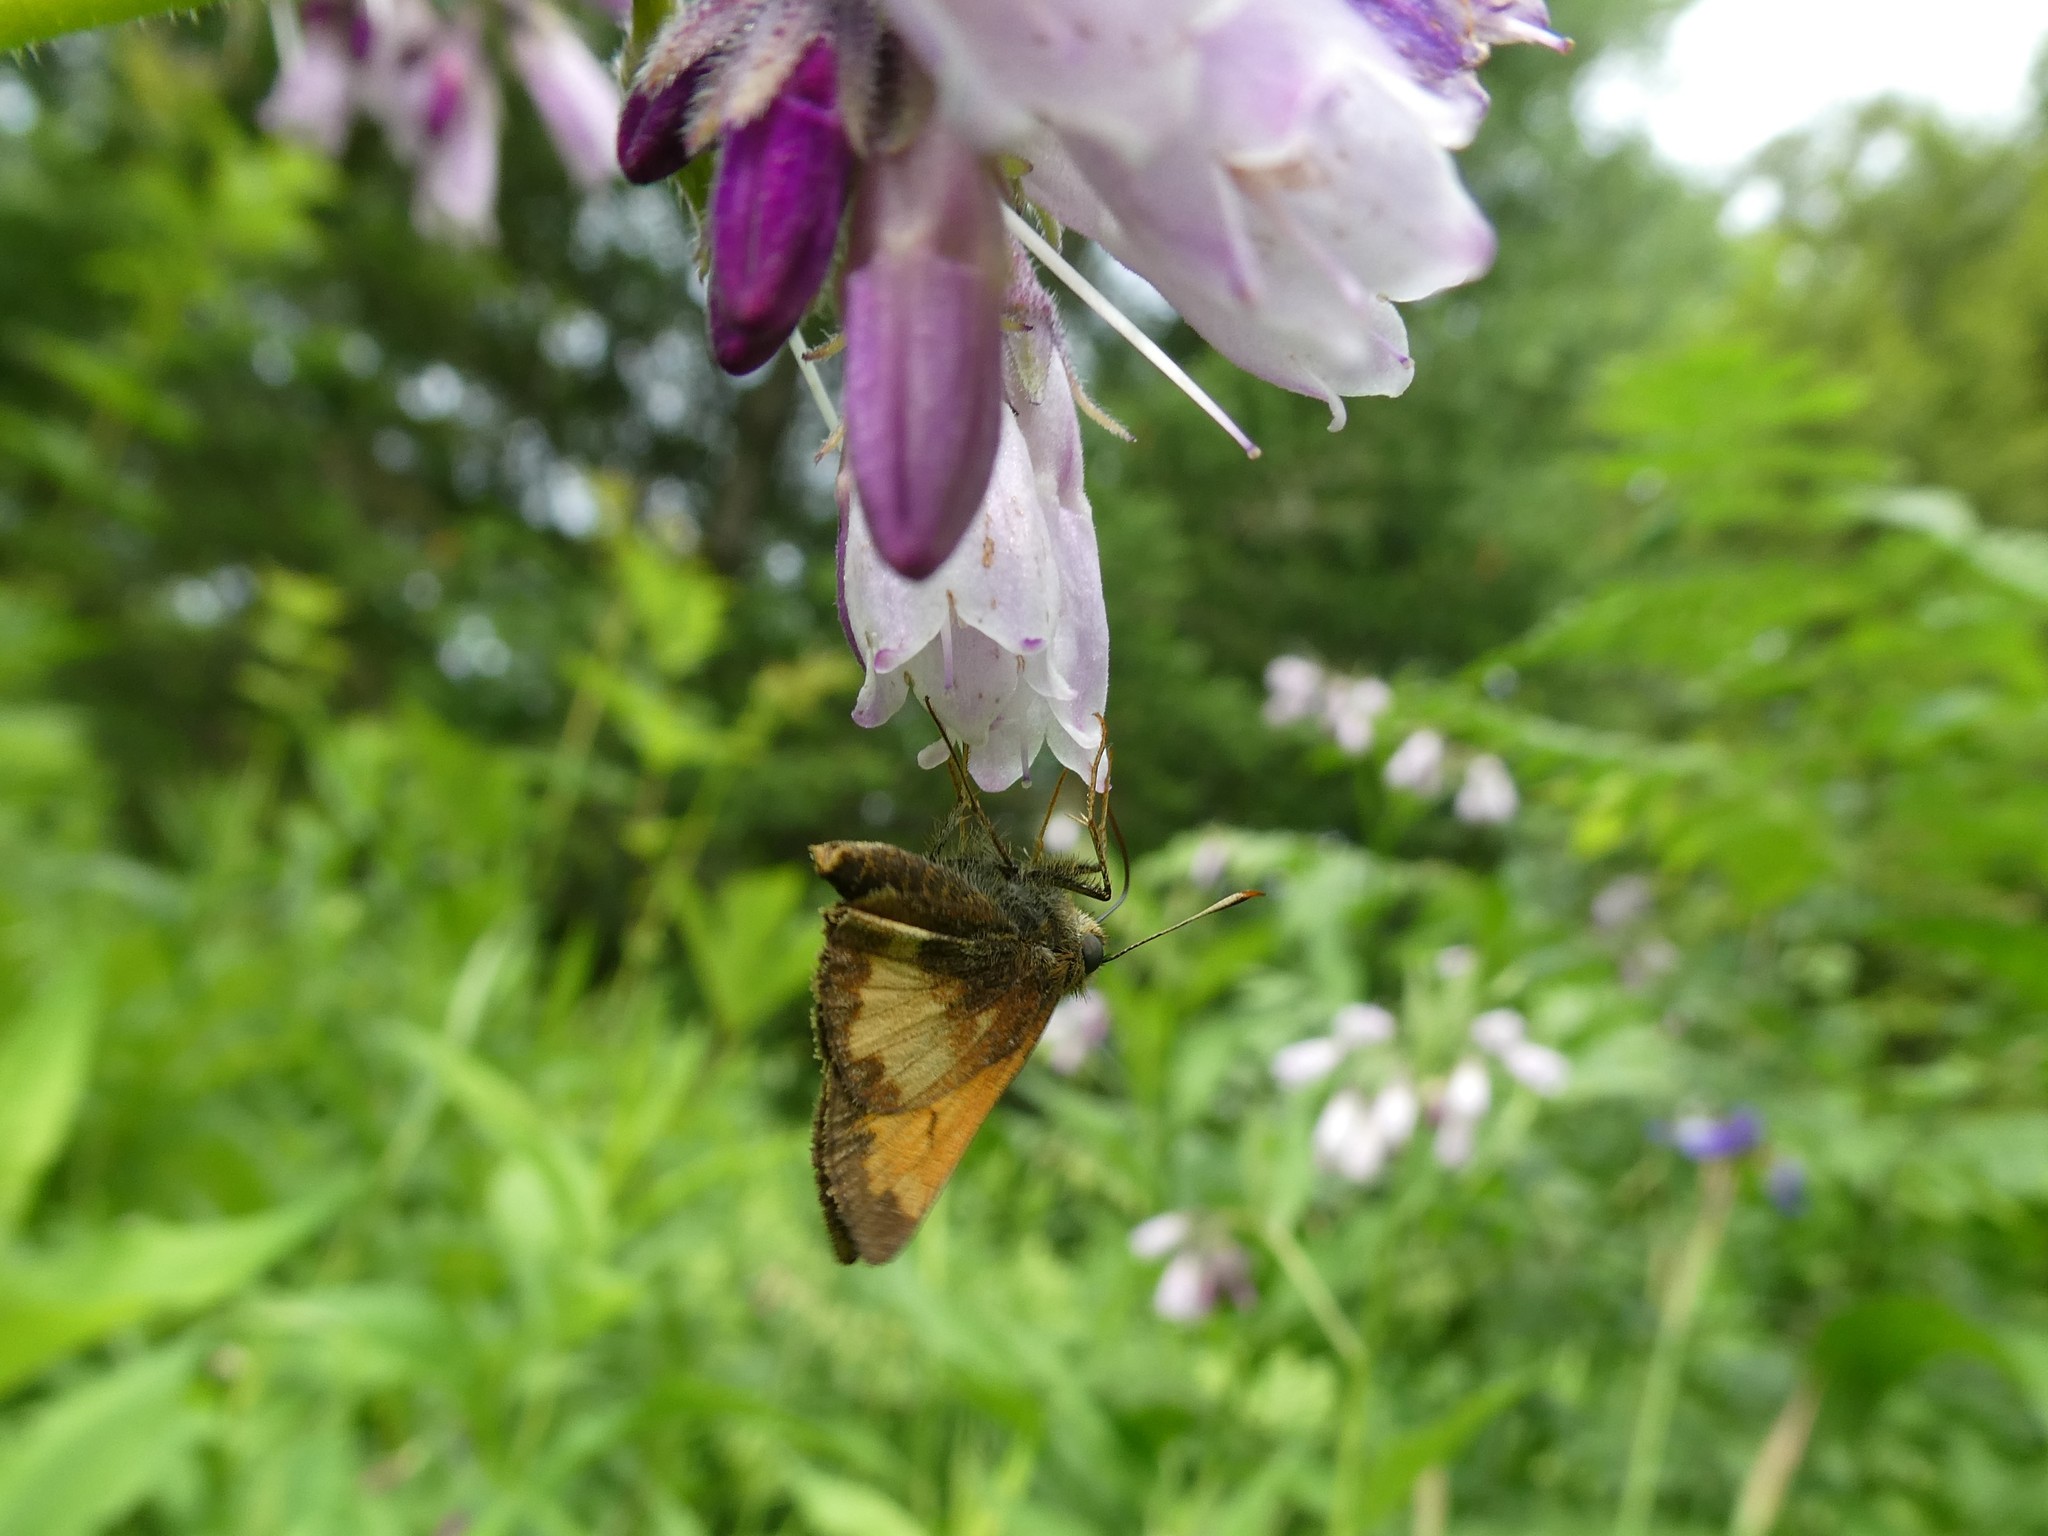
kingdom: Animalia
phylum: Arthropoda
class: Insecta
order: Lepidoptera
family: Hesperiidae
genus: Lon
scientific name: Lon hobomok
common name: Hobomok skipper
